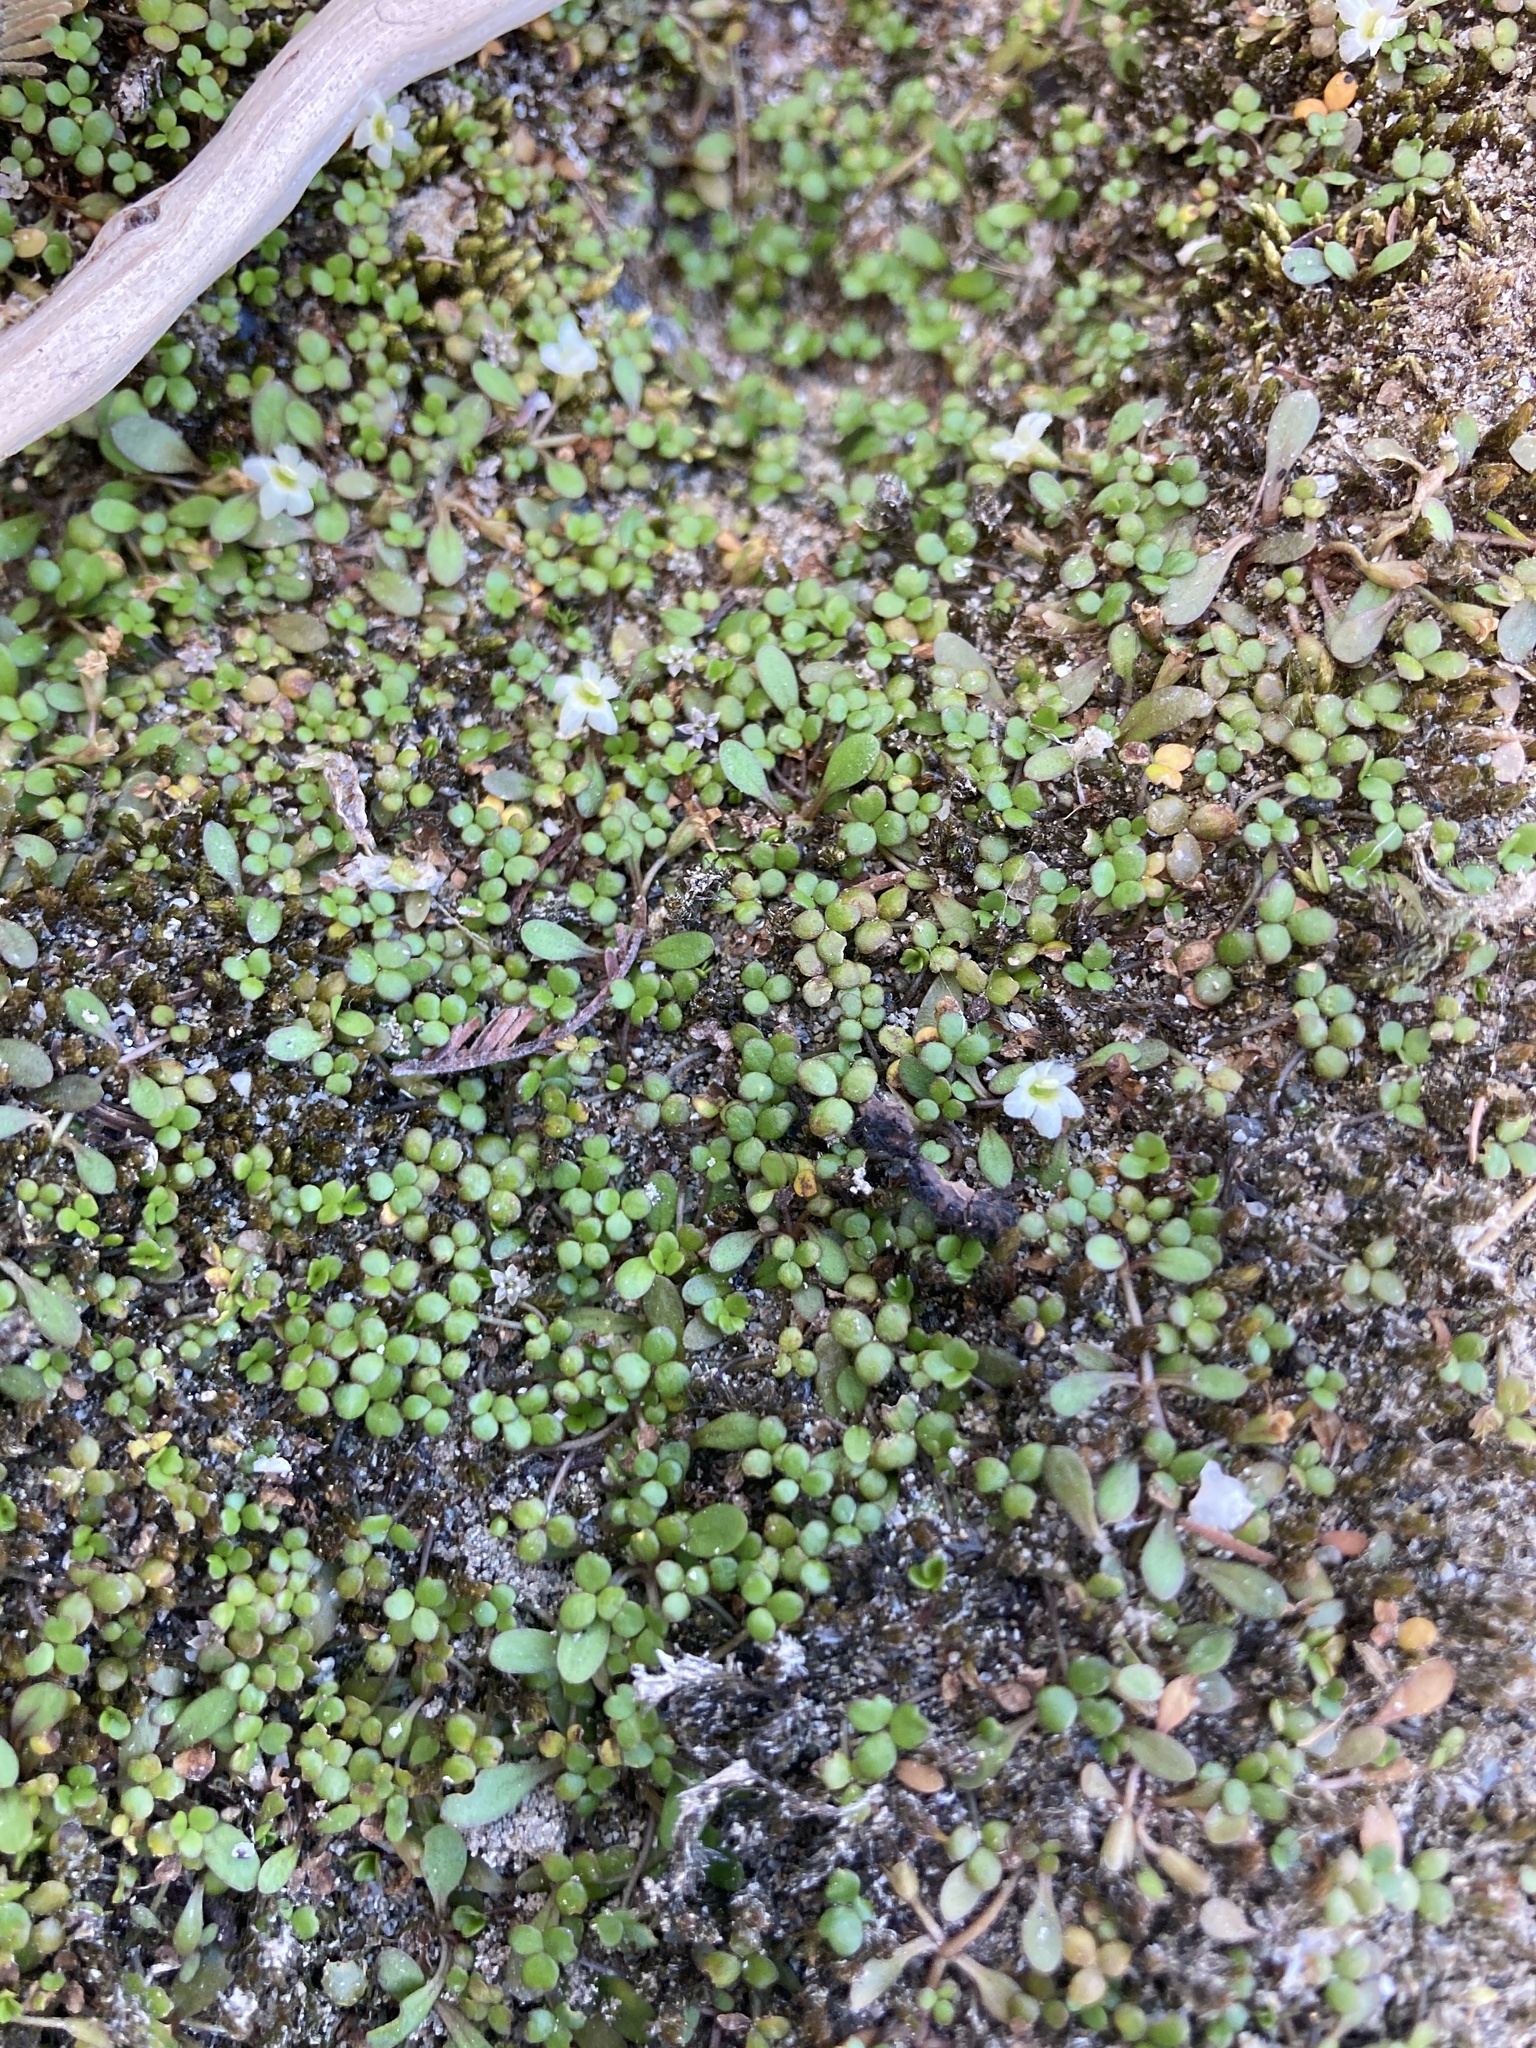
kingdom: Plantae
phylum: Tracheophyta
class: Magnoliopsida
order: Lamiales
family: Phrymaceae
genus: Glossostigma
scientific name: Glossostigma elatinoides
